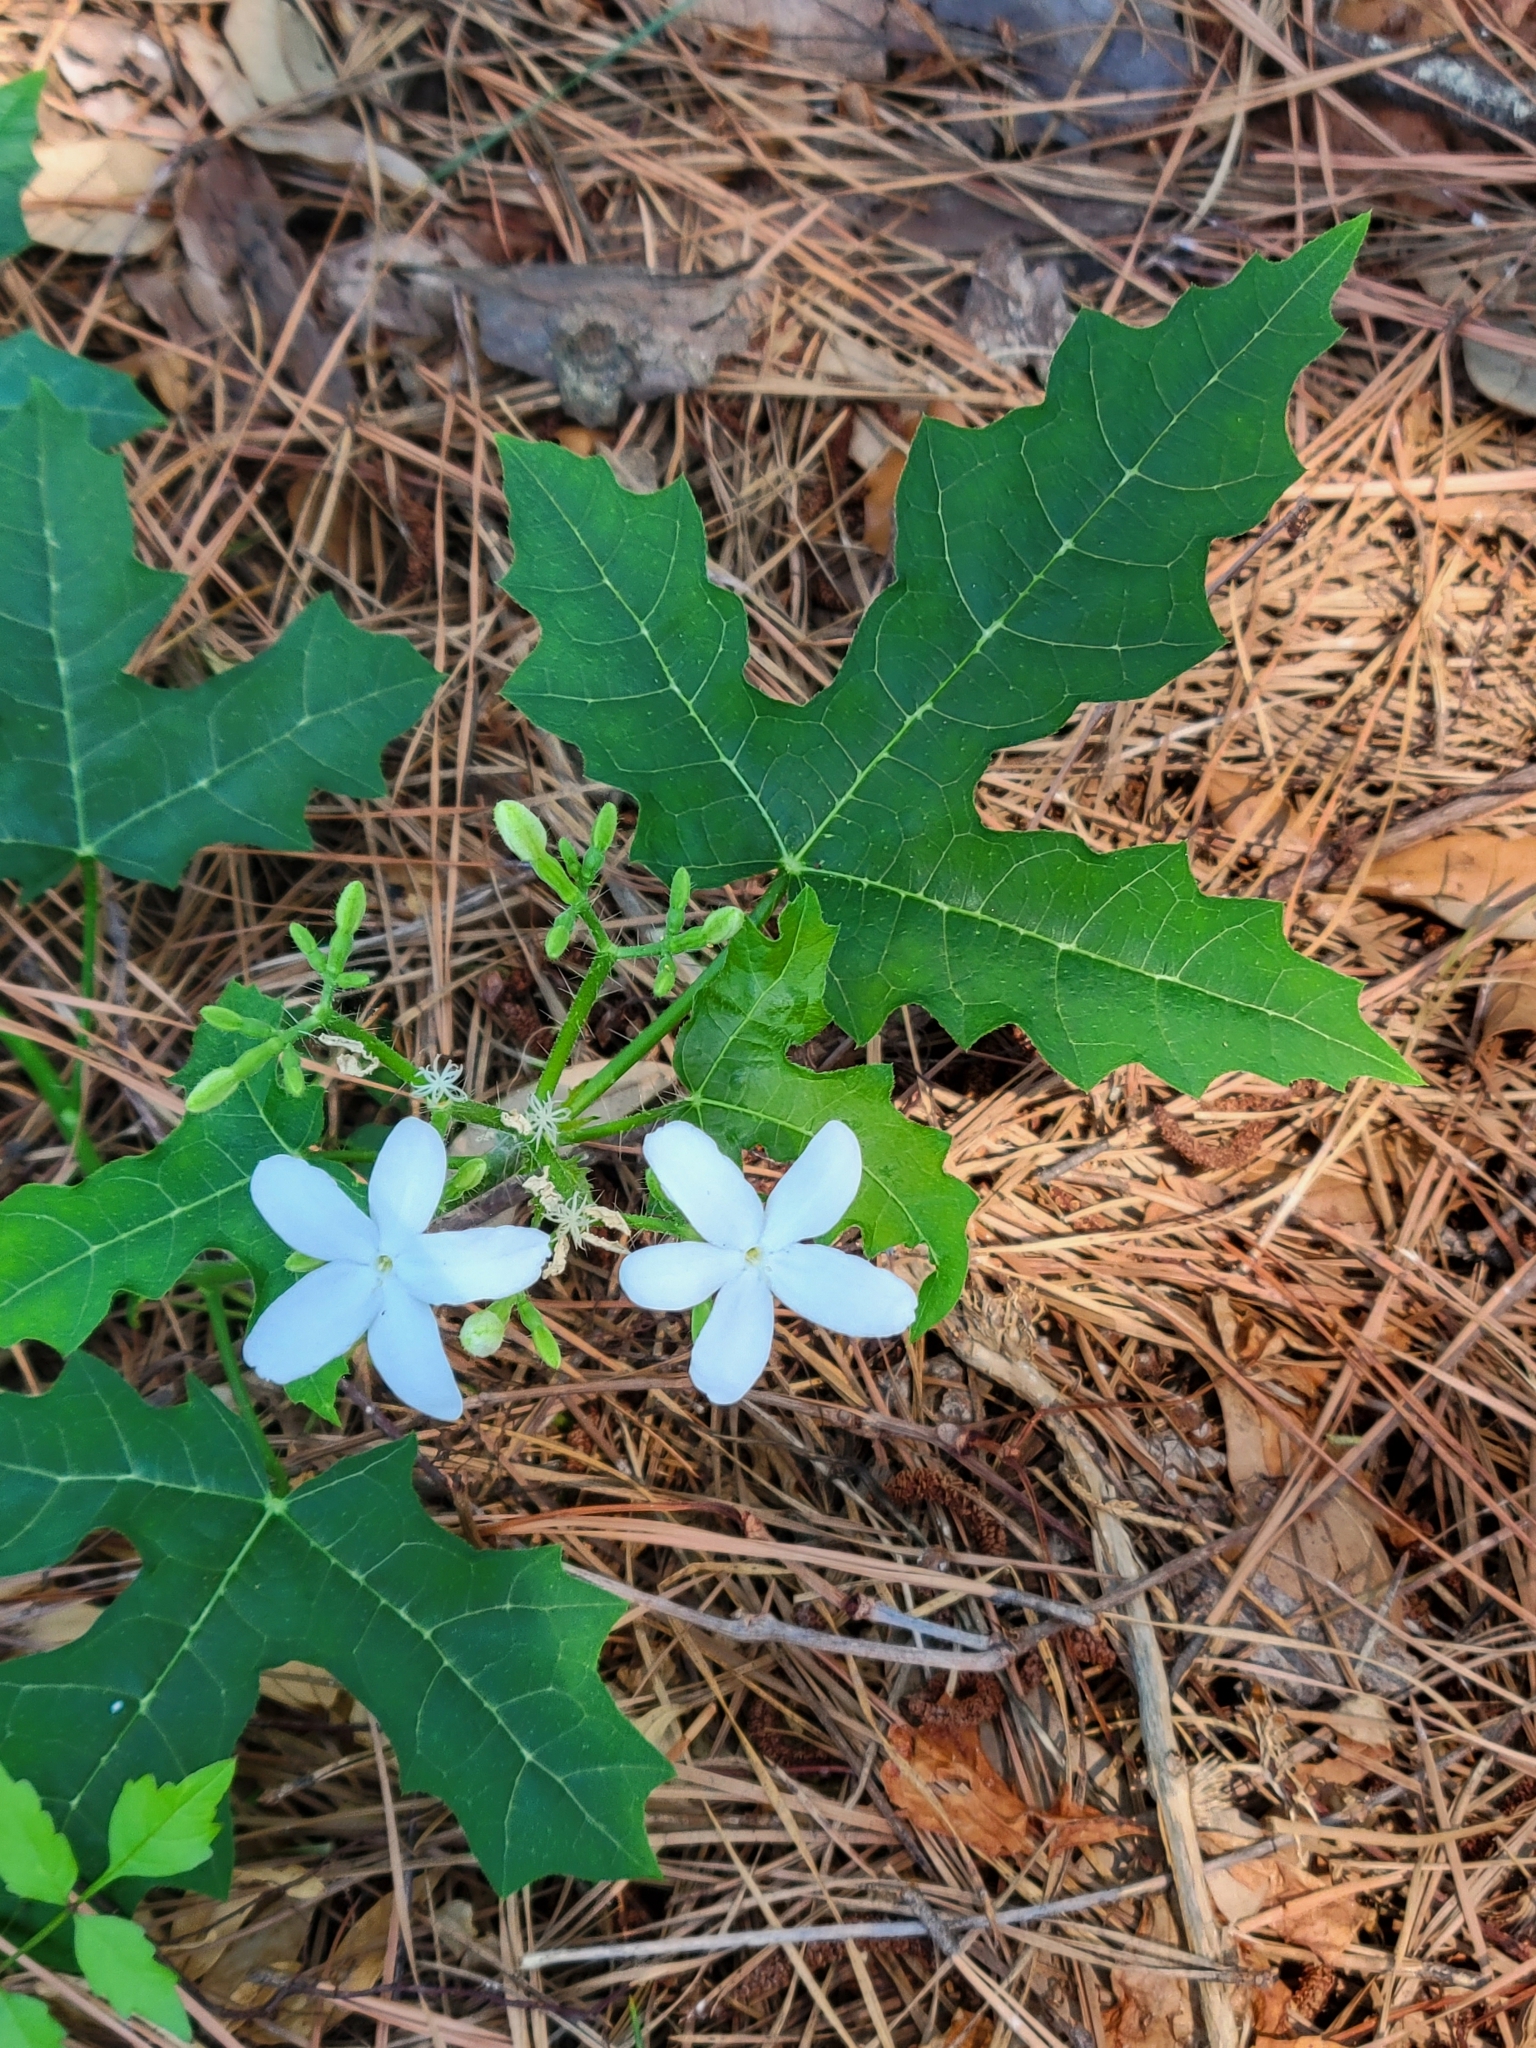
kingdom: Plantae
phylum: Tracheophyta
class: Magnoliopsida
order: Malpighiales
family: Euphorbiaceae
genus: Cnidoscolus
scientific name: Cnidoscolus stimulosus
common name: Bull-nettle
